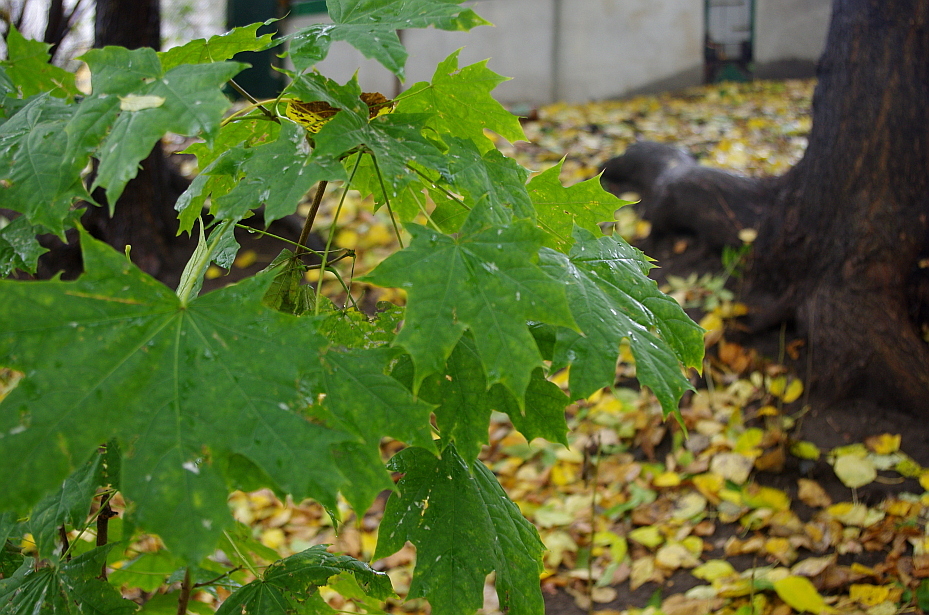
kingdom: Plantae
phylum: Tracheophyta
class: Magnoliopsida
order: Sapindales
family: Sapindaceae
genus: Acer
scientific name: Acer platanoides
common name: Norway maple
